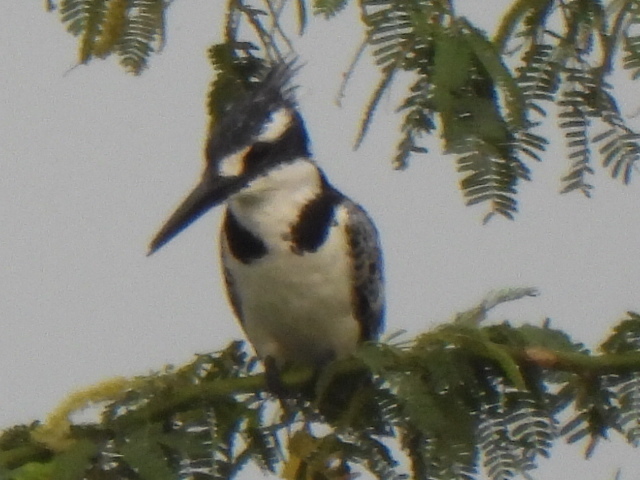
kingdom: Animalia
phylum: Chordata
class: Aves
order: Coraciiformes
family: Alcedinidae
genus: Ceryle
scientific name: Ceryle rudis
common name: Pied kingfisher
